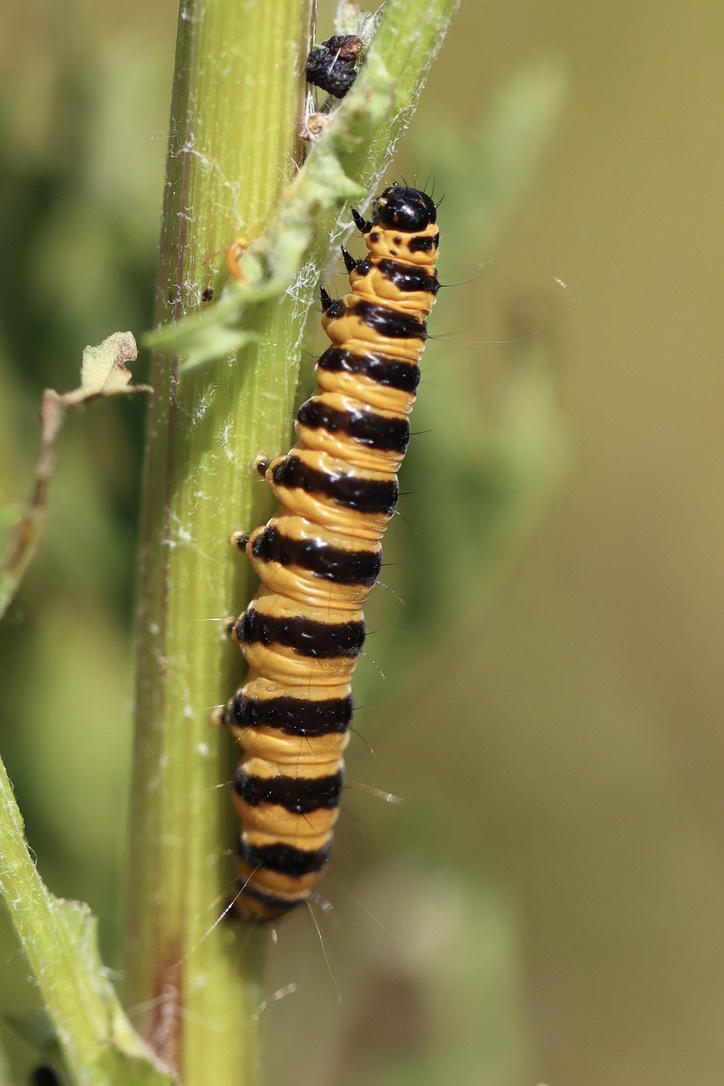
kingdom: Animalia
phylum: Arthropoda
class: Insecta
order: Lepidoptera
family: Erebidae
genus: Tyria
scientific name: Tyria jacobaeae
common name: Cinnabar
